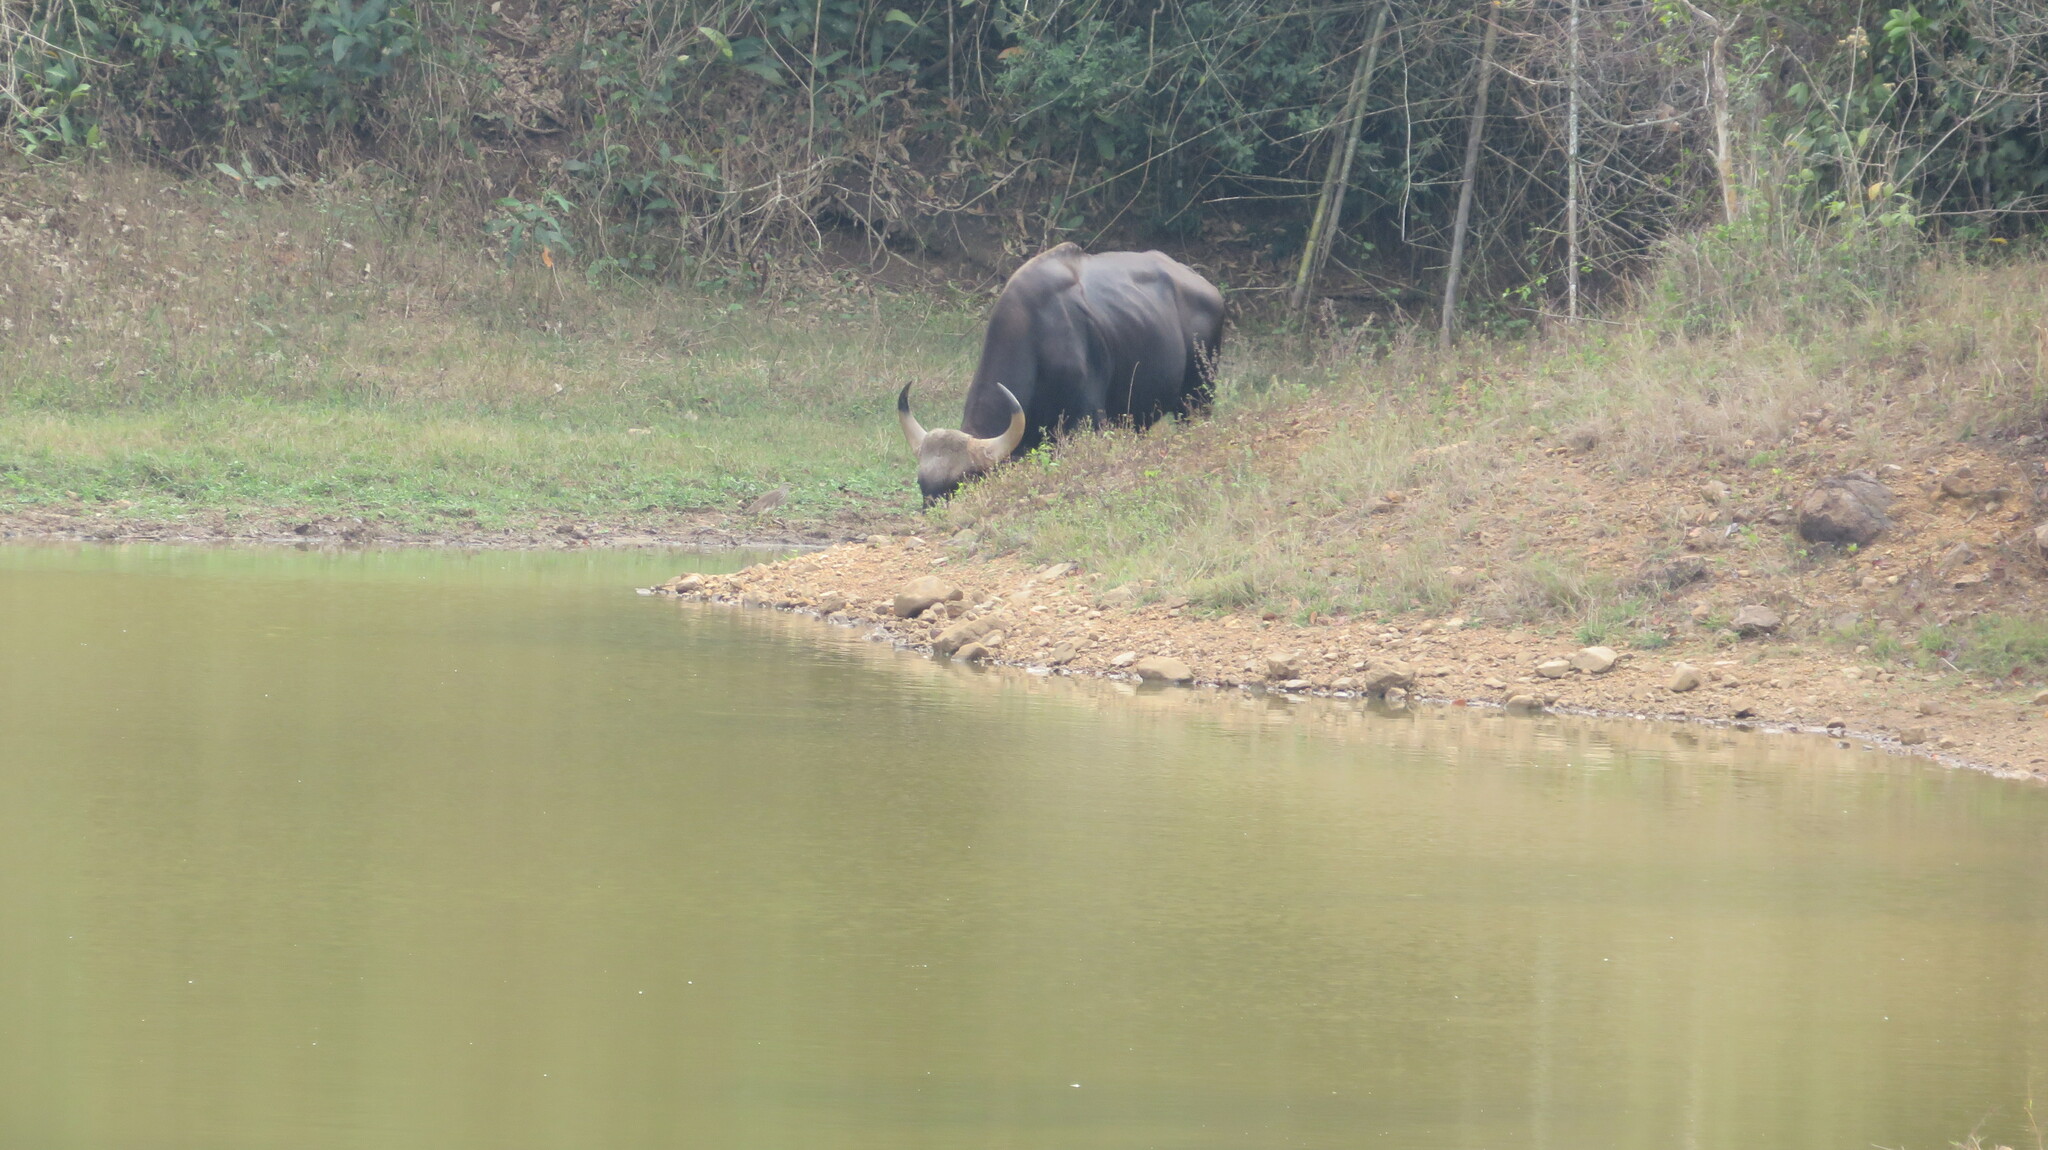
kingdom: Animalia
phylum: Chordata
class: Mammalia
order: Artiodactyla
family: Bovidae
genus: Bos
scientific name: Bos frontalis
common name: Gaur
